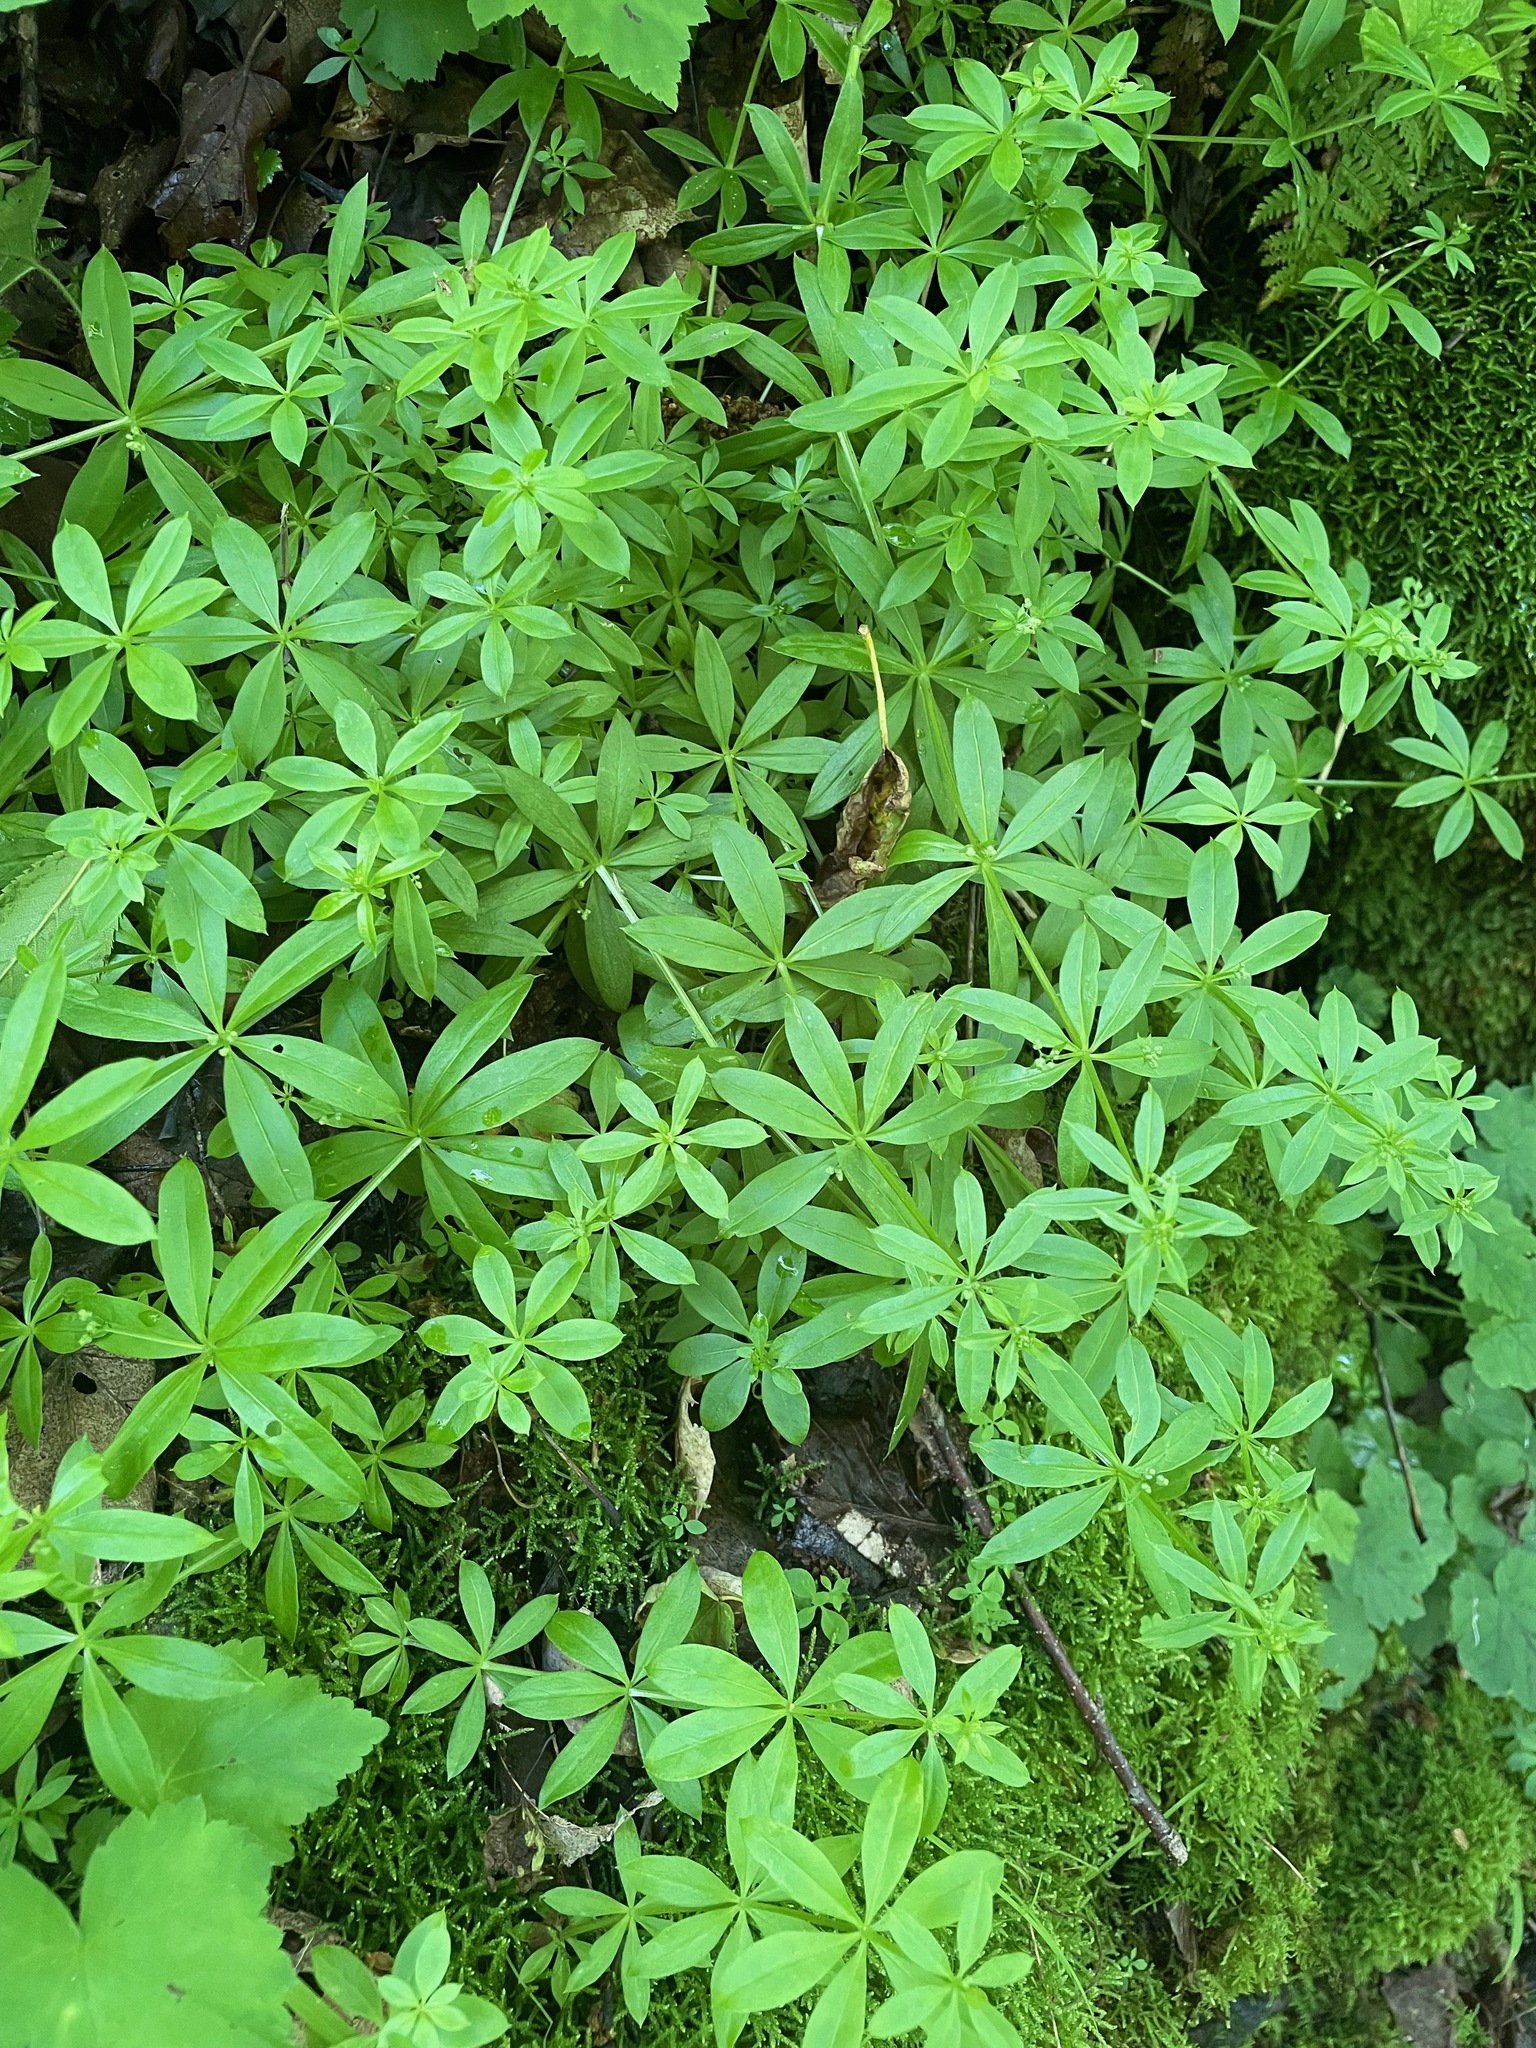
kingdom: Plantae
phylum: Tracheophyta
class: Magnoliopsida
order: Gentianales
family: Rubiaceae
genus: Galium
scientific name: Galium triflorum
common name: Fragrant bedstraw
